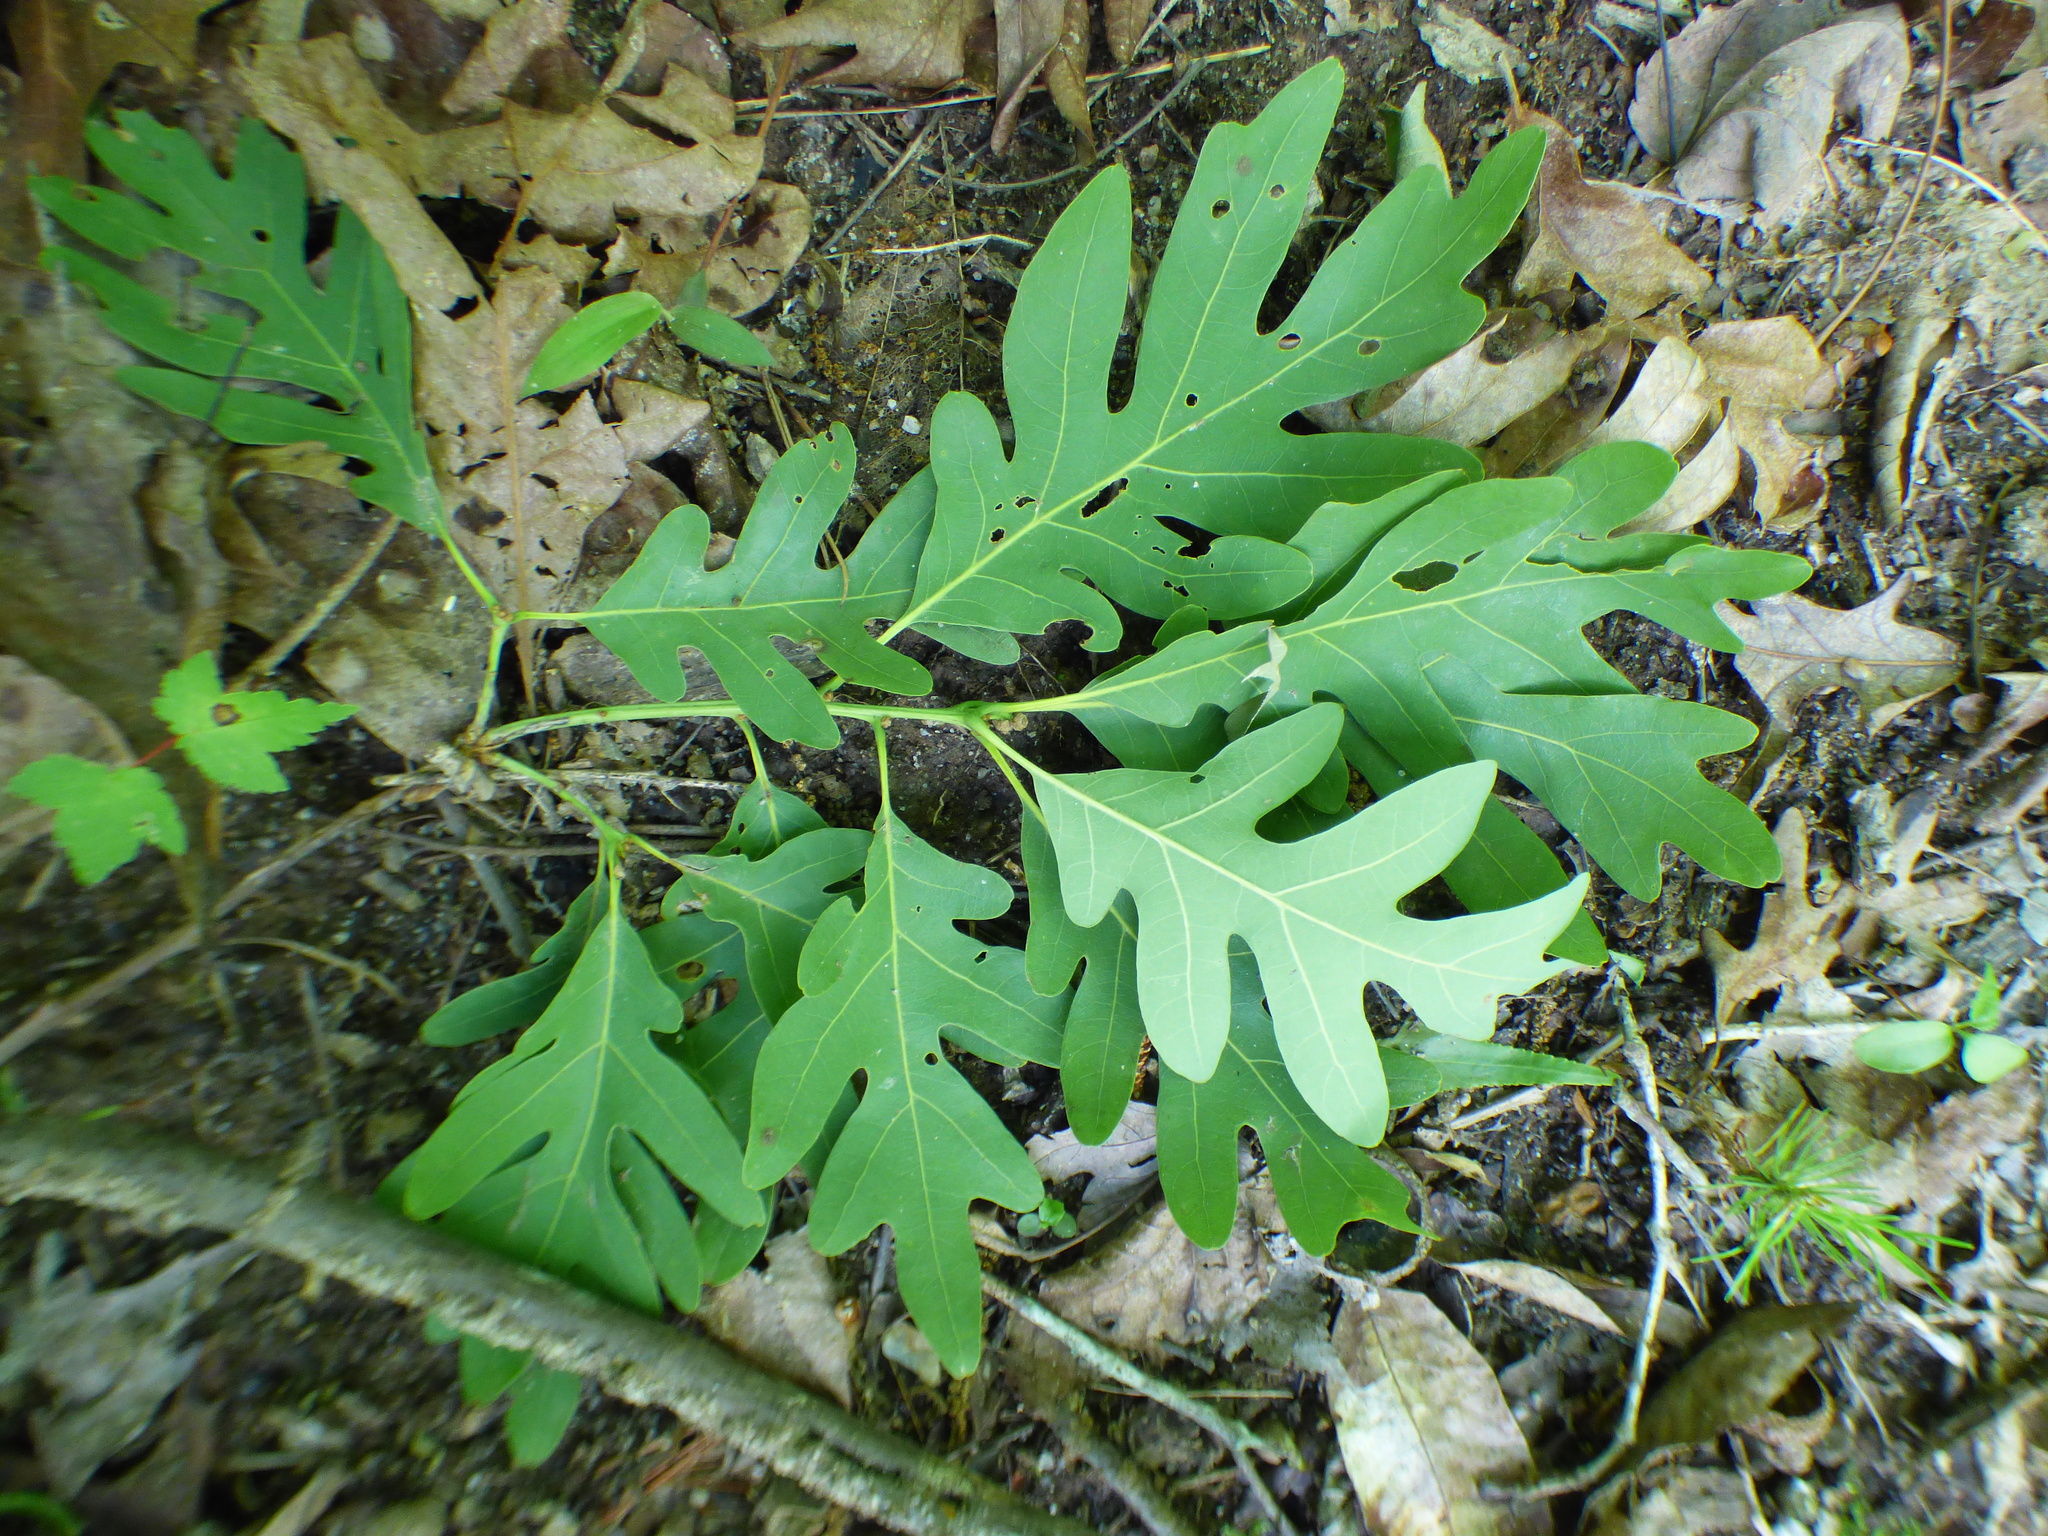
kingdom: Plantae
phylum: Tracheophyta
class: Magnoliopsida
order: Fagales
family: Fagaceae
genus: Quercus
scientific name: Quercus alba
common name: White oak
